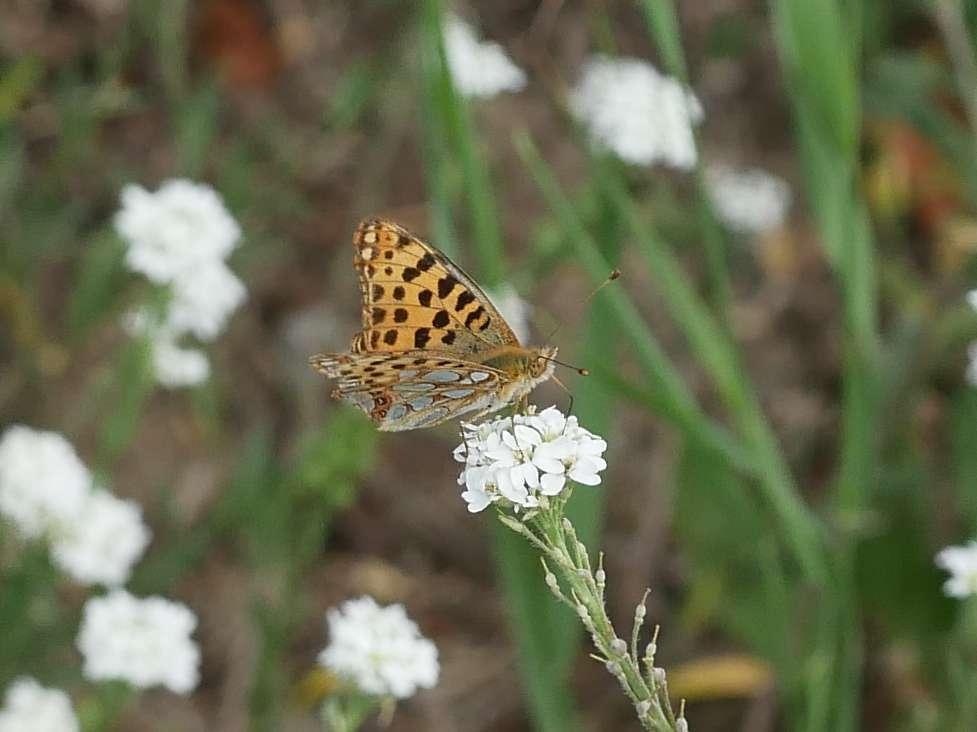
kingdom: Animalia
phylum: Arthropoda
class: Insecta
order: Lepidoptera
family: Nymphalidae
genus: Issoria
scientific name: Issoria lathonia
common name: Queen of spain fritillary
